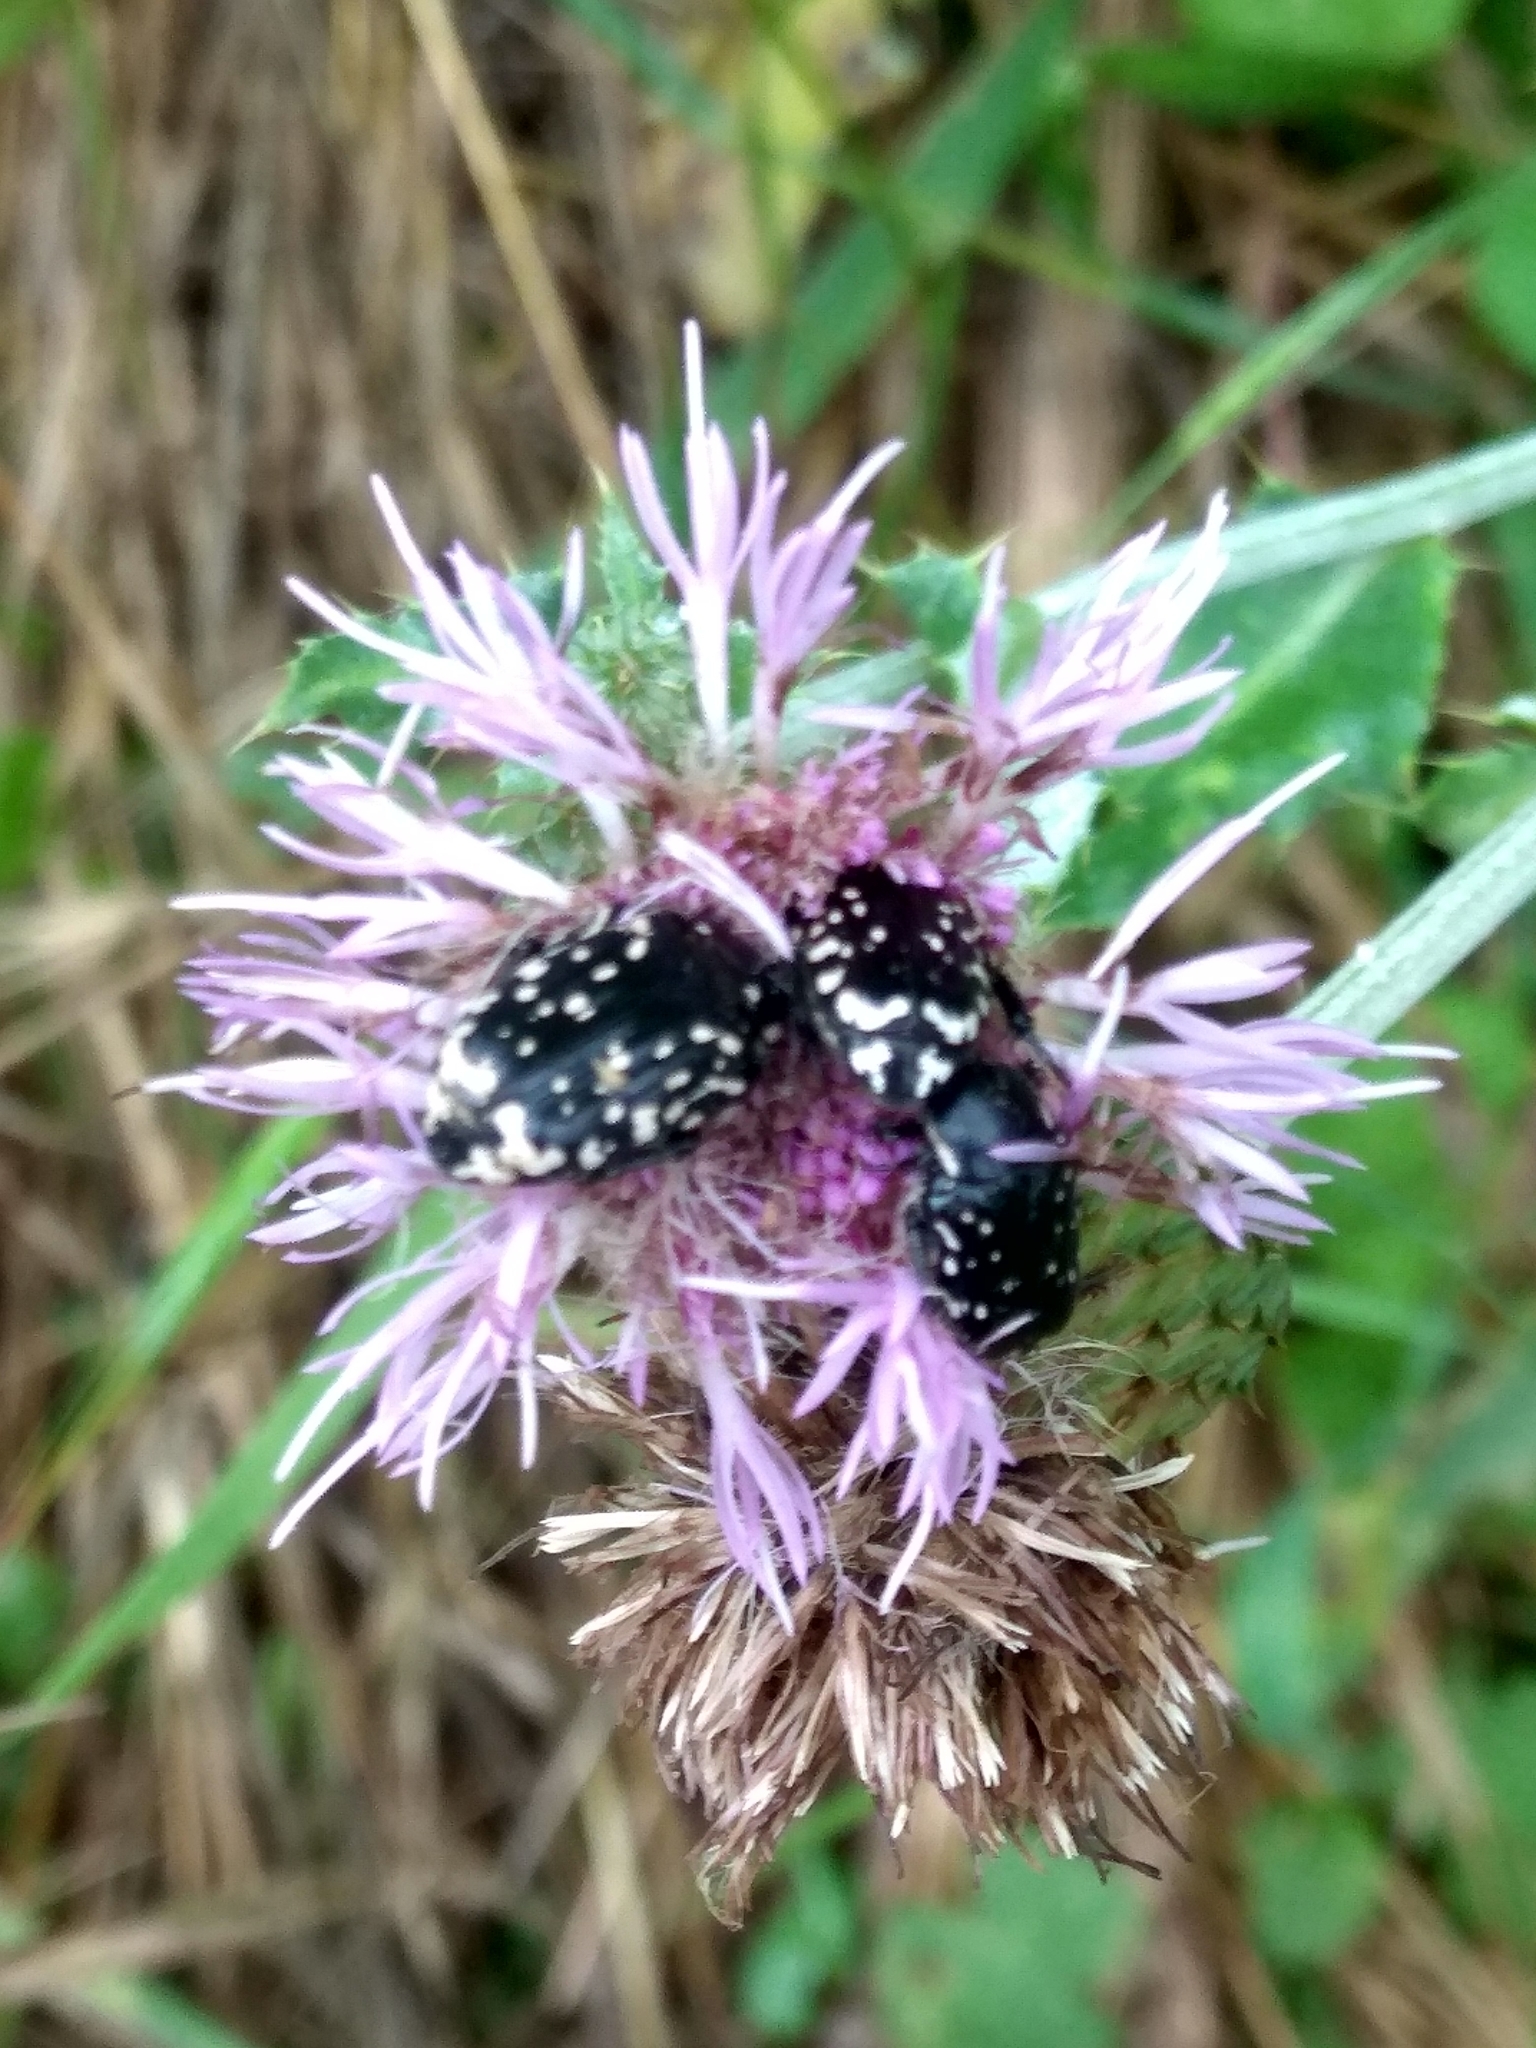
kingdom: Animalia
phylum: Arthropoda
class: Insecta
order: Coleoptera
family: Scarabaeidae
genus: Oxythyrea
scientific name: Oxythyrea cinctella
